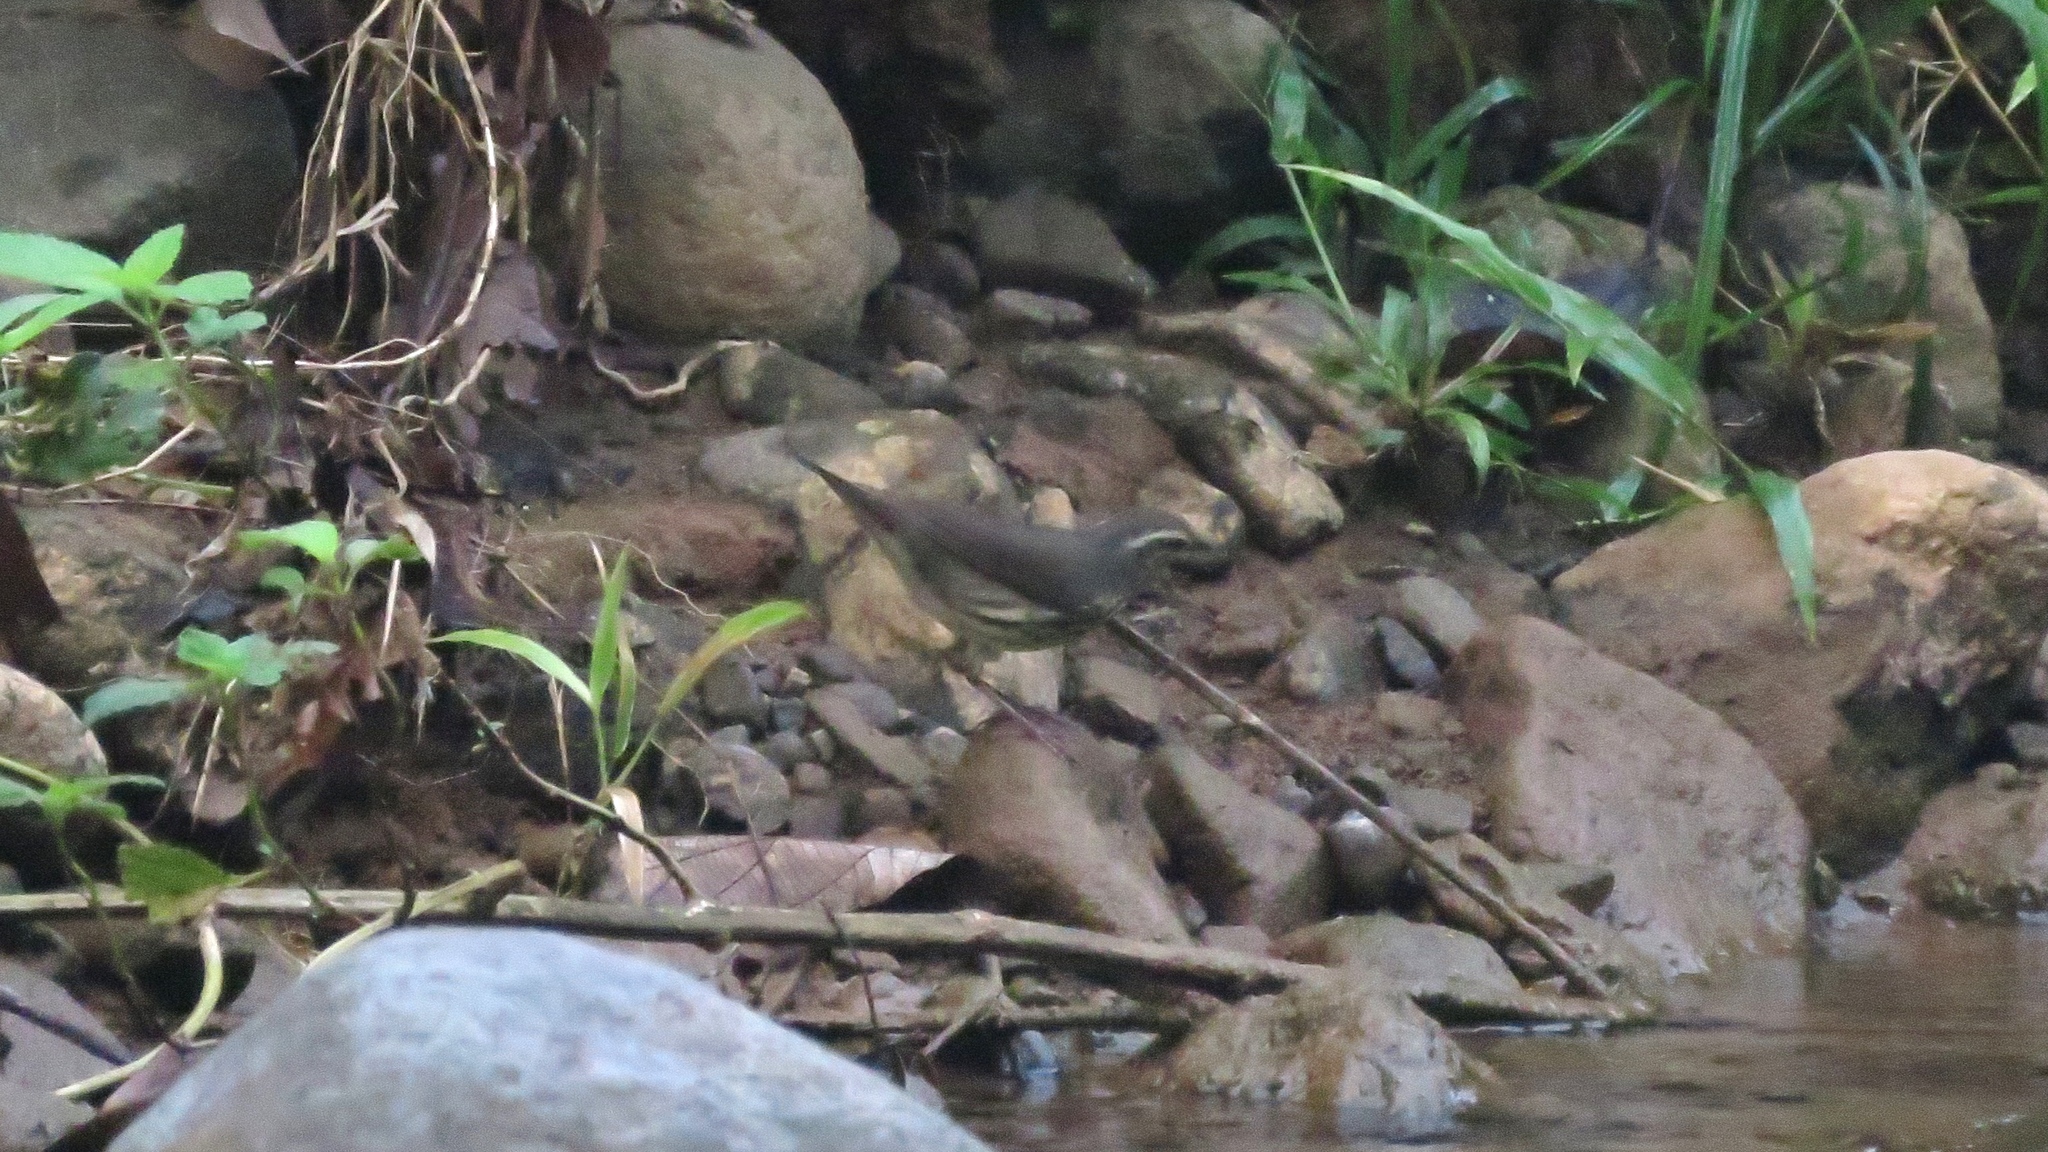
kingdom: Animalia
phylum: Chordata
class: Aves
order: Passeriformes
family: Parulidae
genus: Parkesia
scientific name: Parkesia motacilla
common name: Louisiana waterthrush
